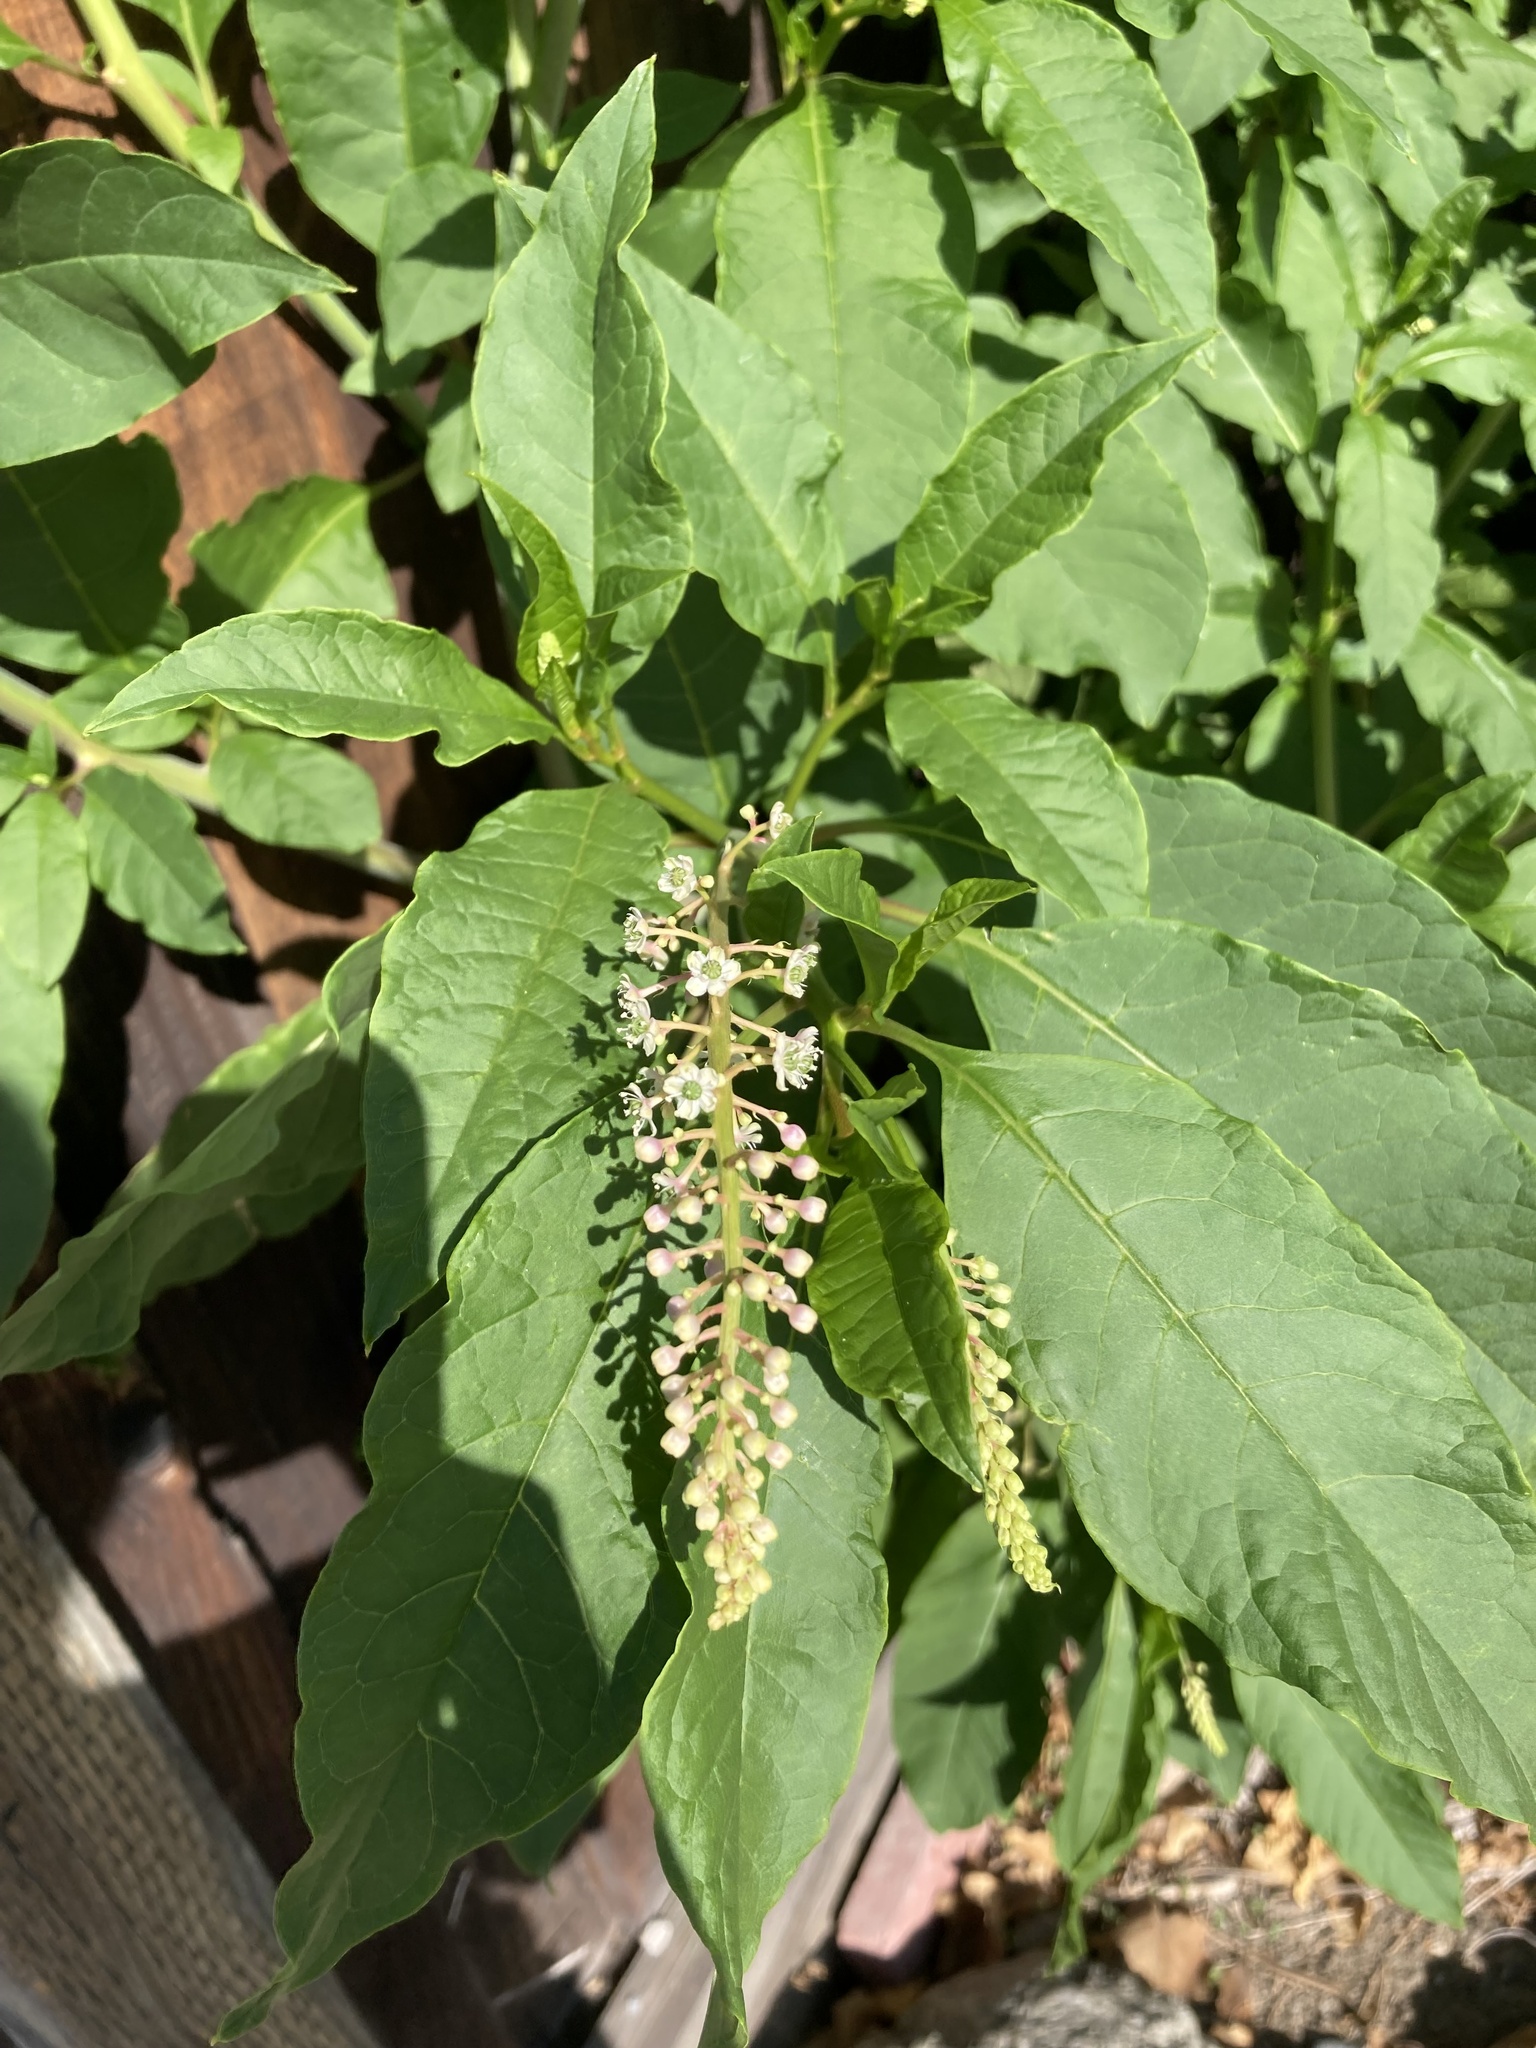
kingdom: Plantae
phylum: Tracheophyta
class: Magnoliopsida
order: Caryophyllales
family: Phytolaccaceae
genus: Phytolacca
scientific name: Phytolacca americana
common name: American pokeweed
